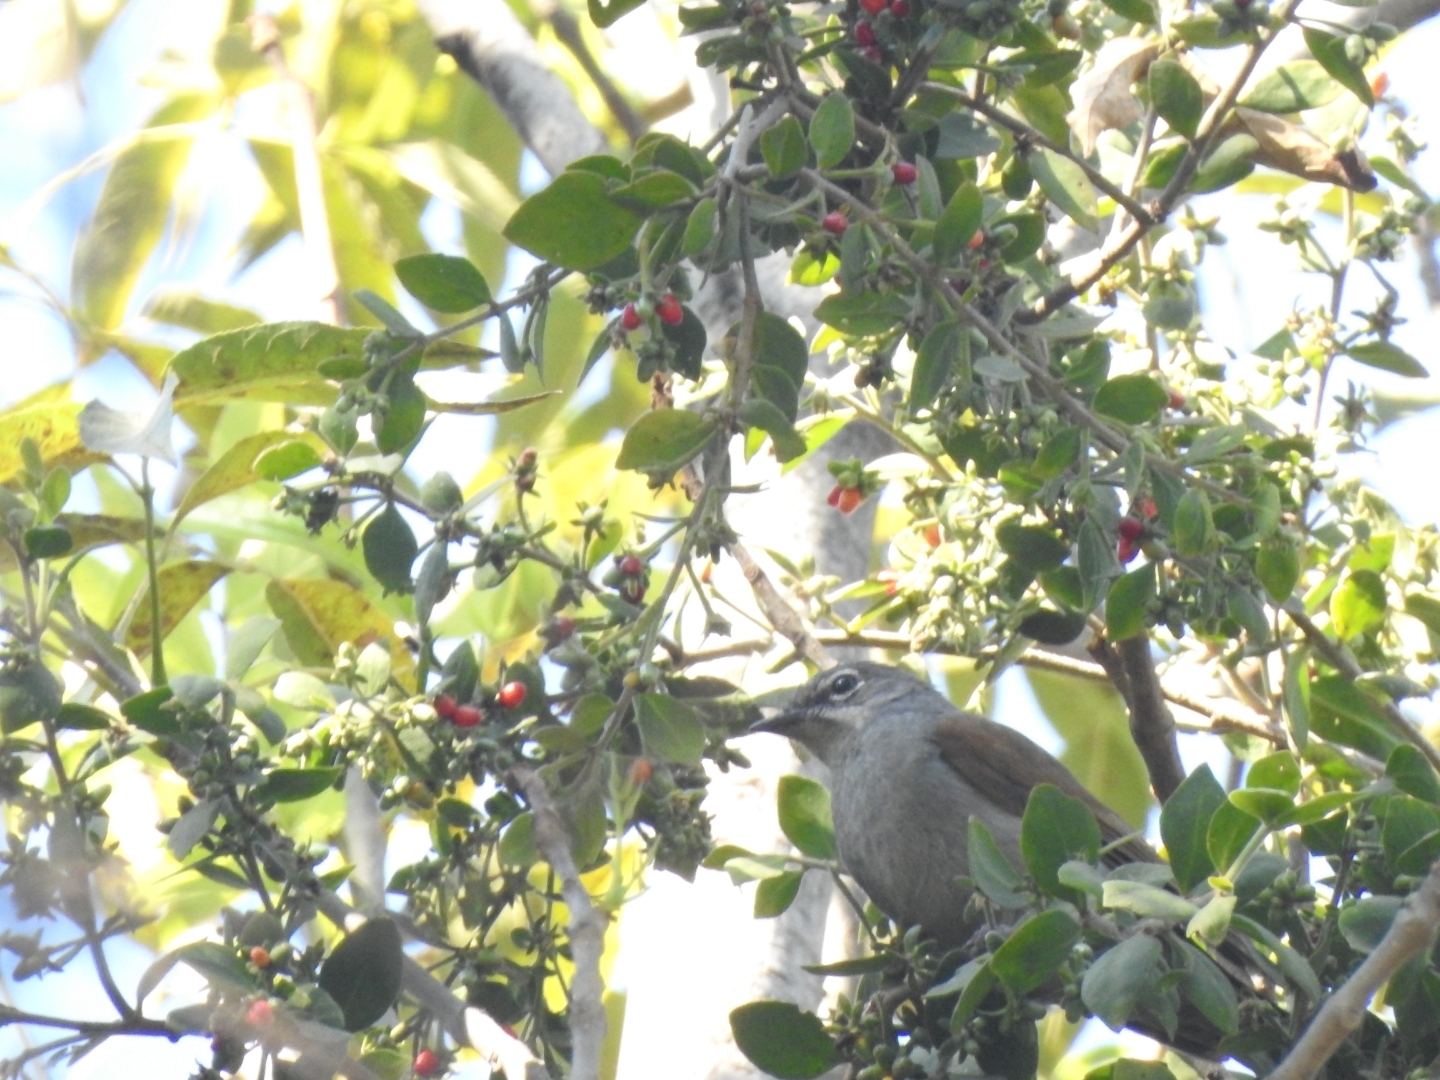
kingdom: Animalia
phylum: Chordata
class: Aves
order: Passeriformes
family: Turdidae
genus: Myadestes
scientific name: Myadestes occidentalis
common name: Brown-backed solitaire
